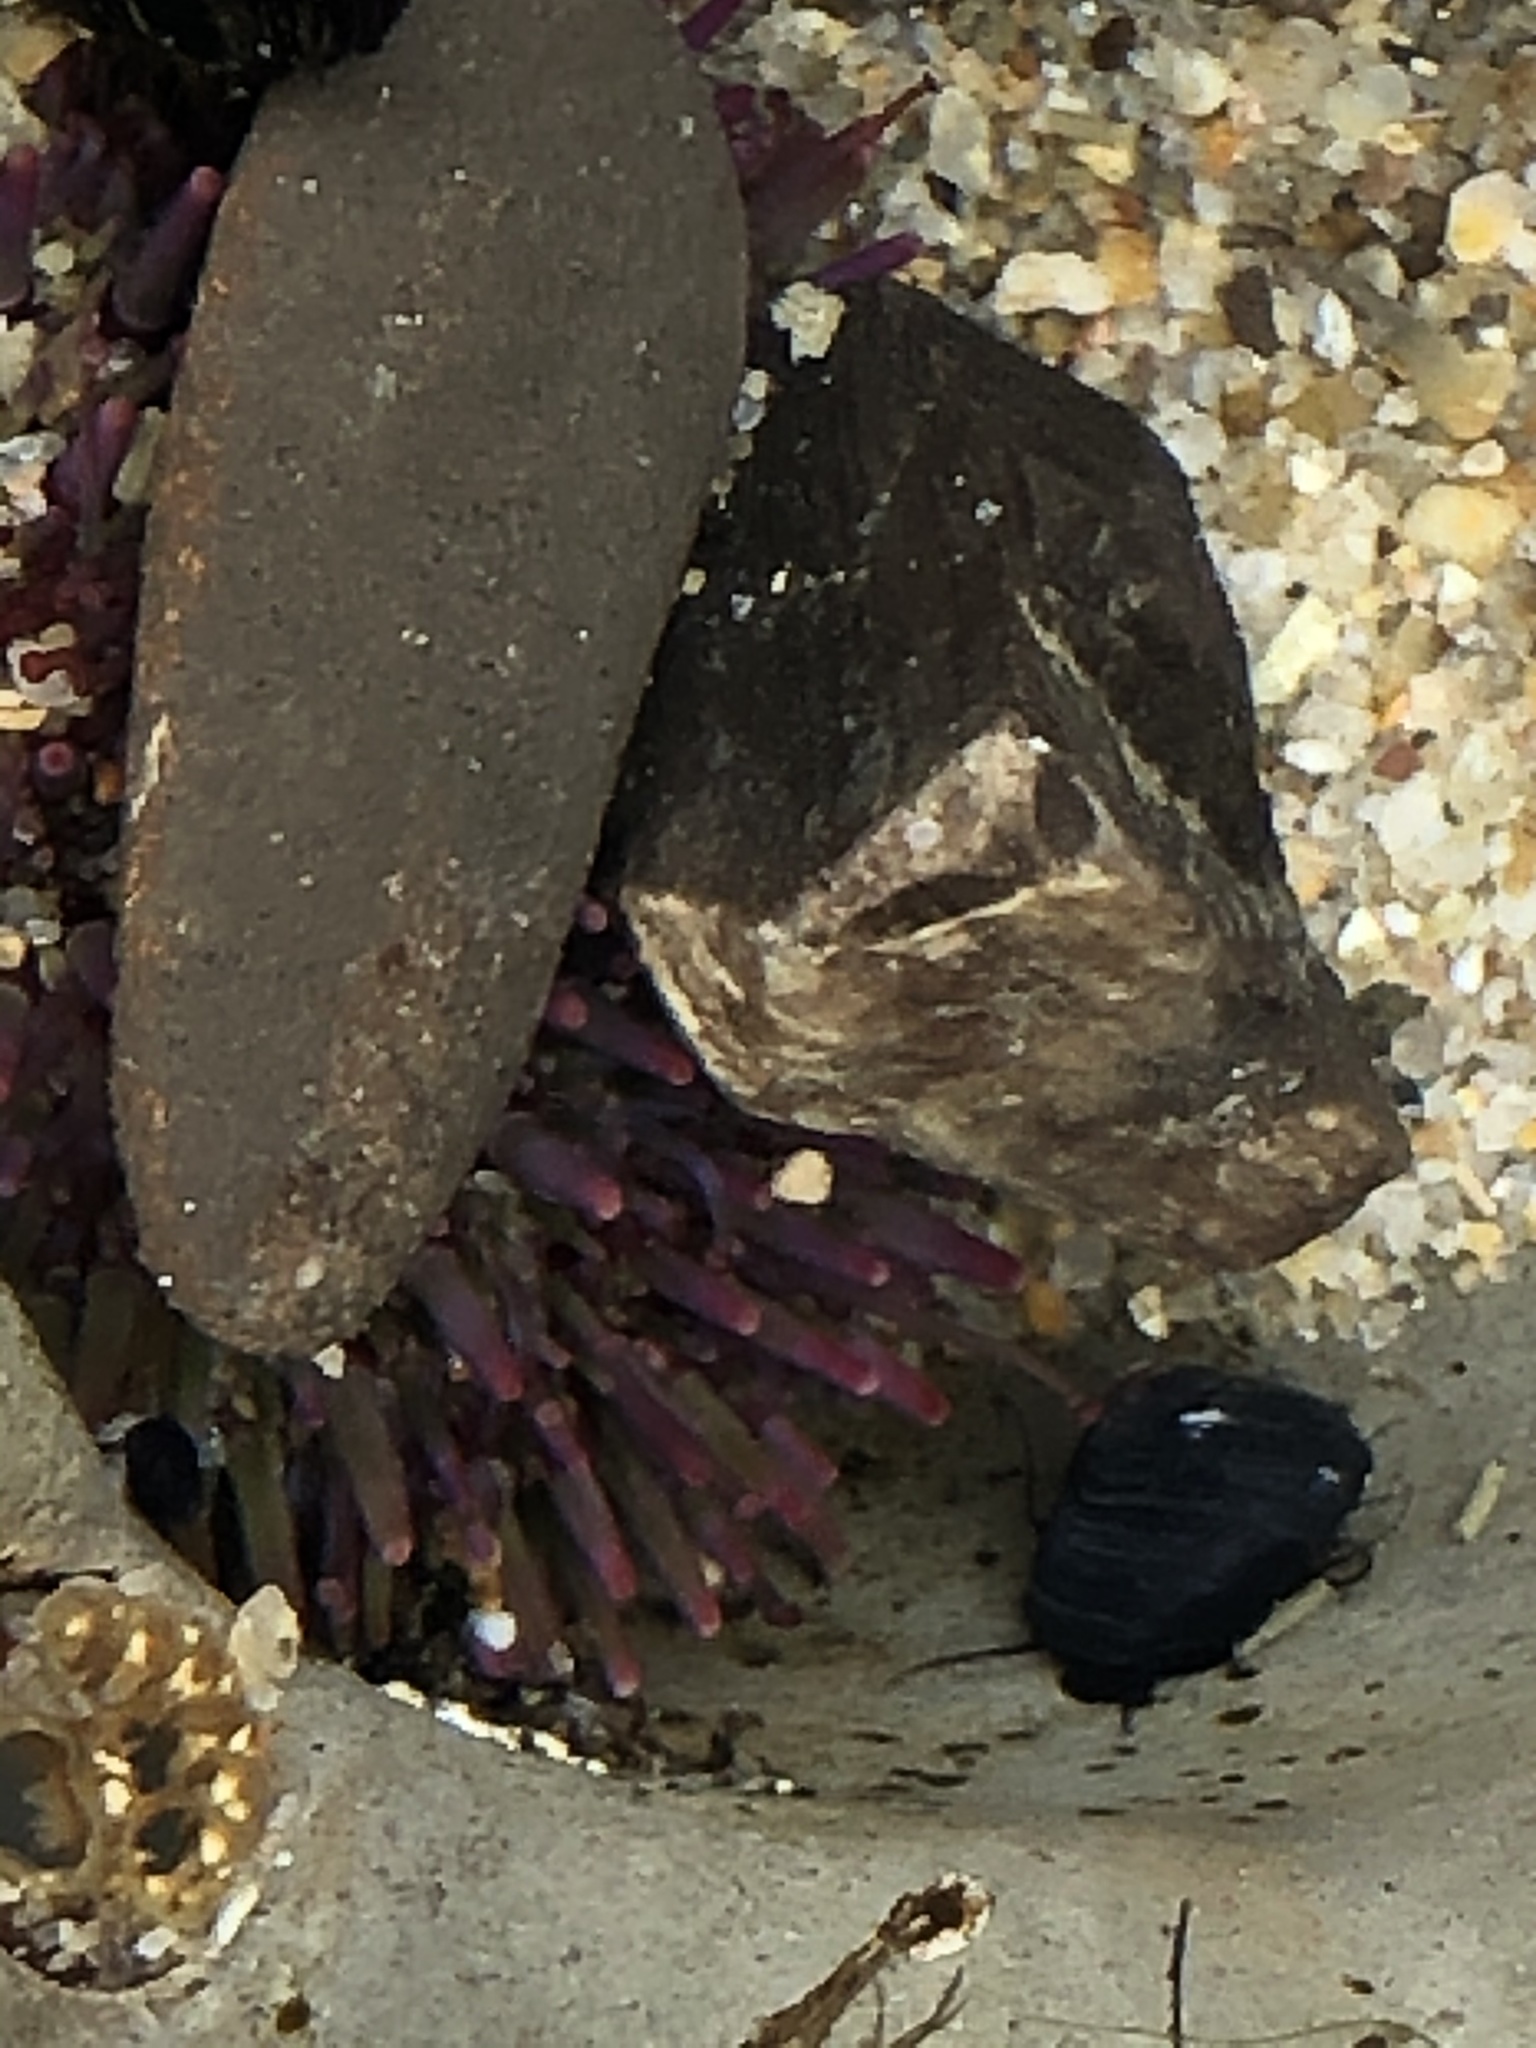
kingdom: Animalia
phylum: Echinodermata
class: Echinoidea
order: Camarodonta
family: Strongylocentrotidae
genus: Strongylocentrotus
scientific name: Strongylocentrotus purpuratus
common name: Purple sea urchin
